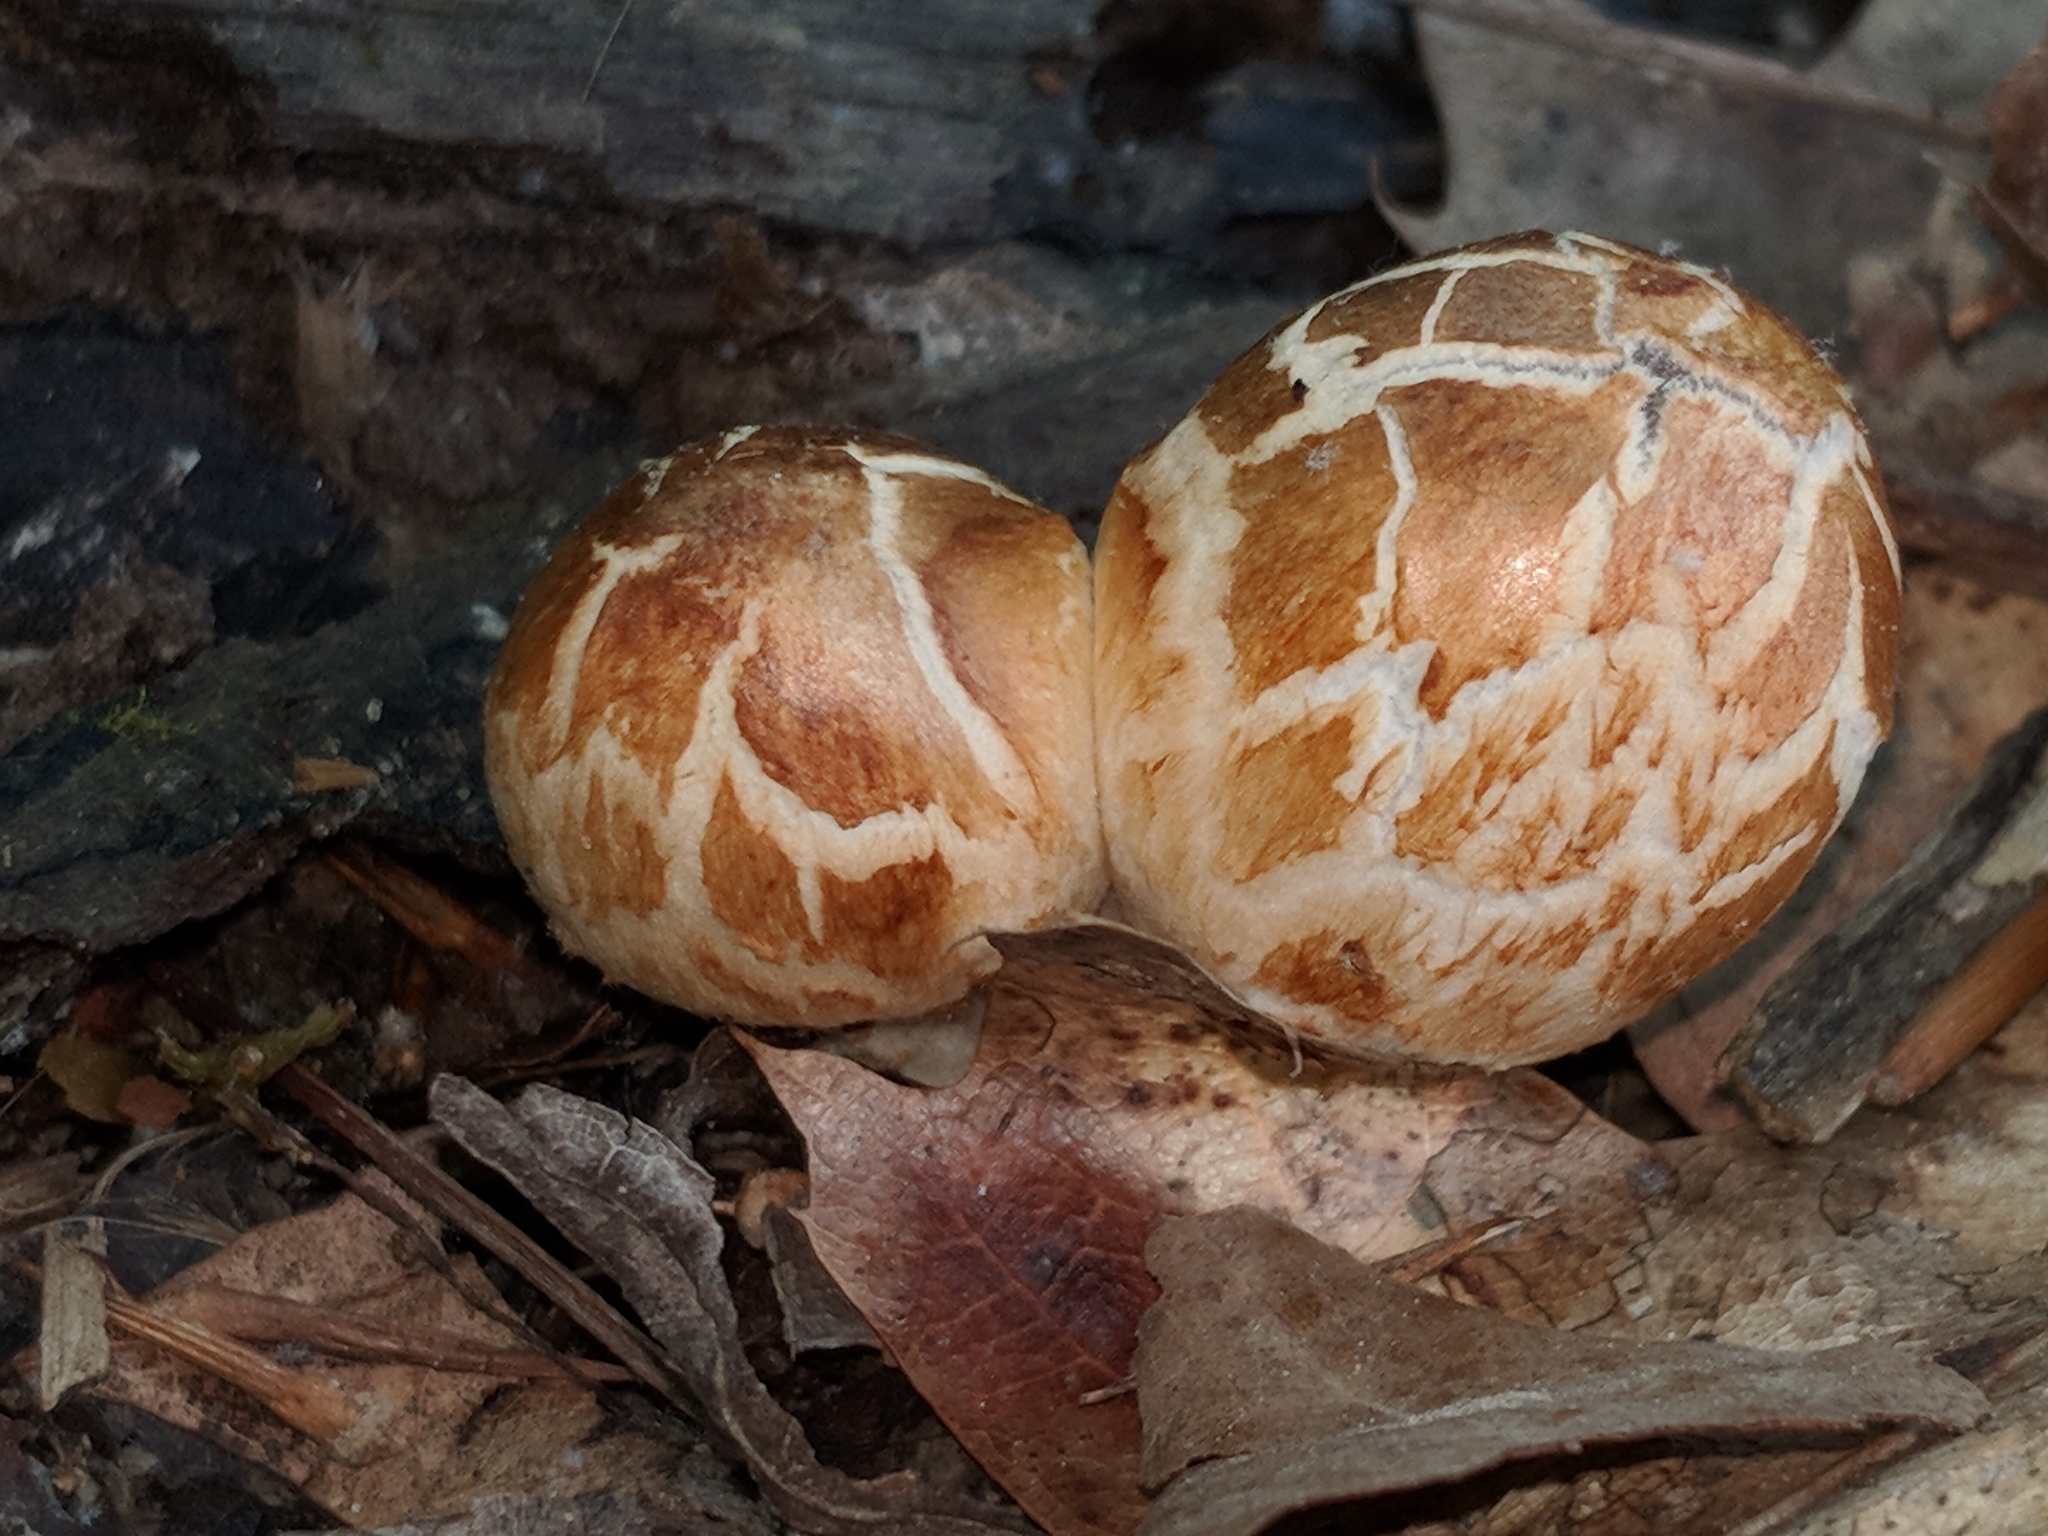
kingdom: Fungi
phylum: Basidiomycota
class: Agaricomycetes
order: Agaricales
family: Psathyrellaceae
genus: Coprinopsis
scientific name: Coprinopsis variegata
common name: Scaly ink cap
